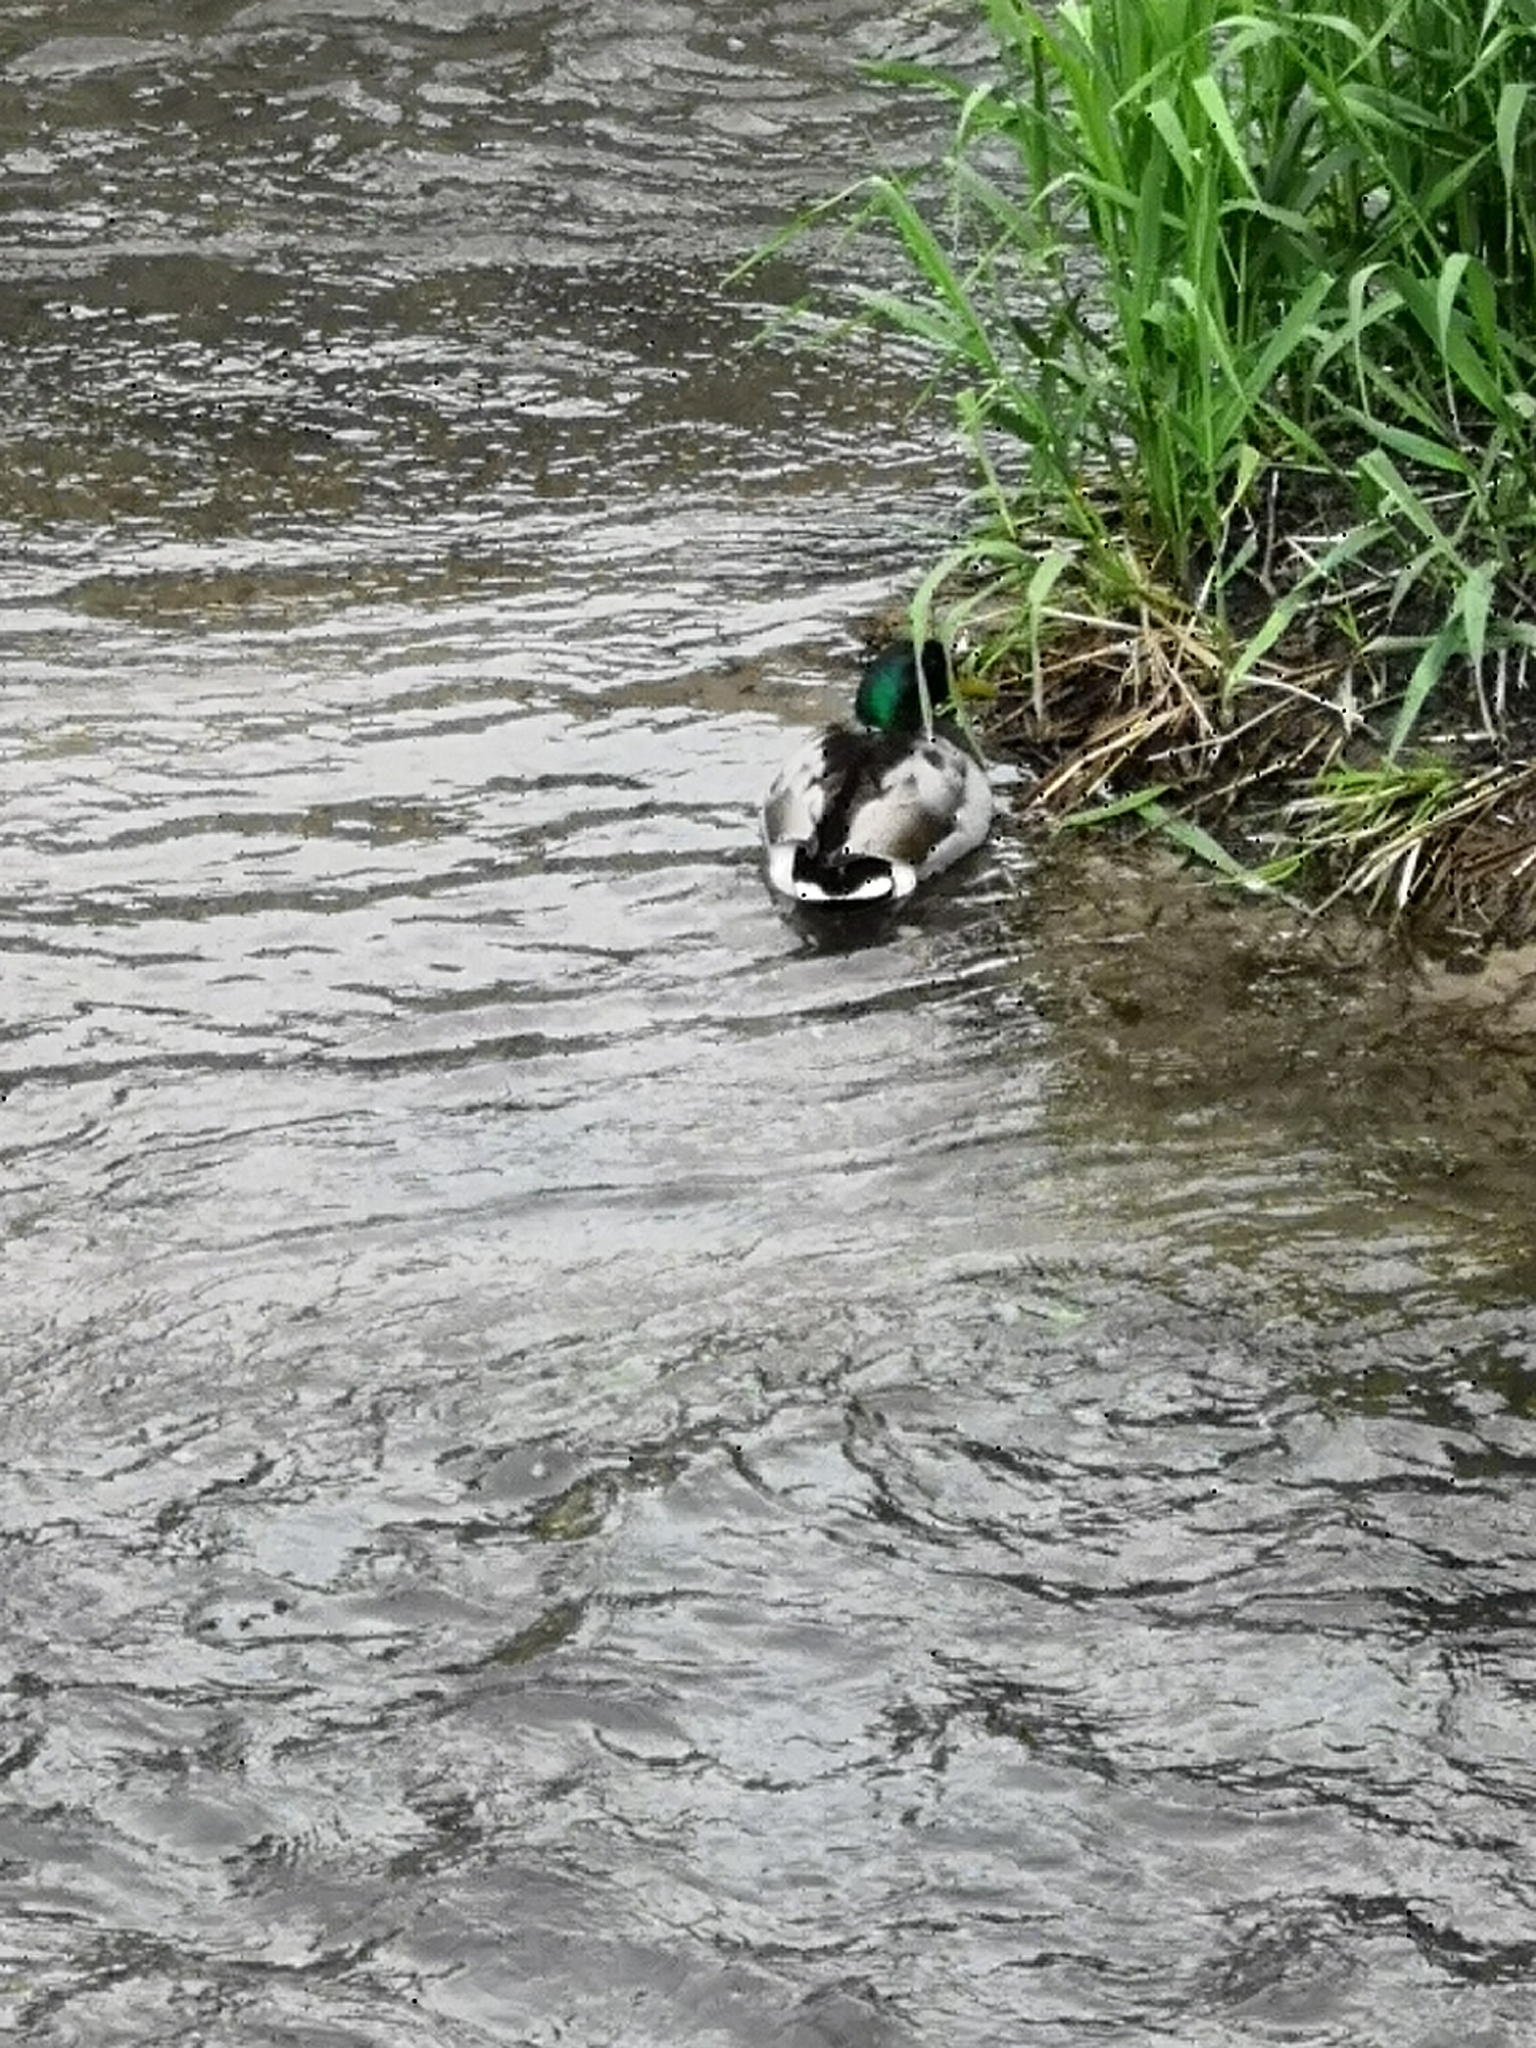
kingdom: Animalia
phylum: Chordata
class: Aves
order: Anseriformes
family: Anatidae
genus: Anas
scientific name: Anas platyrhynchos
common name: Mallard
